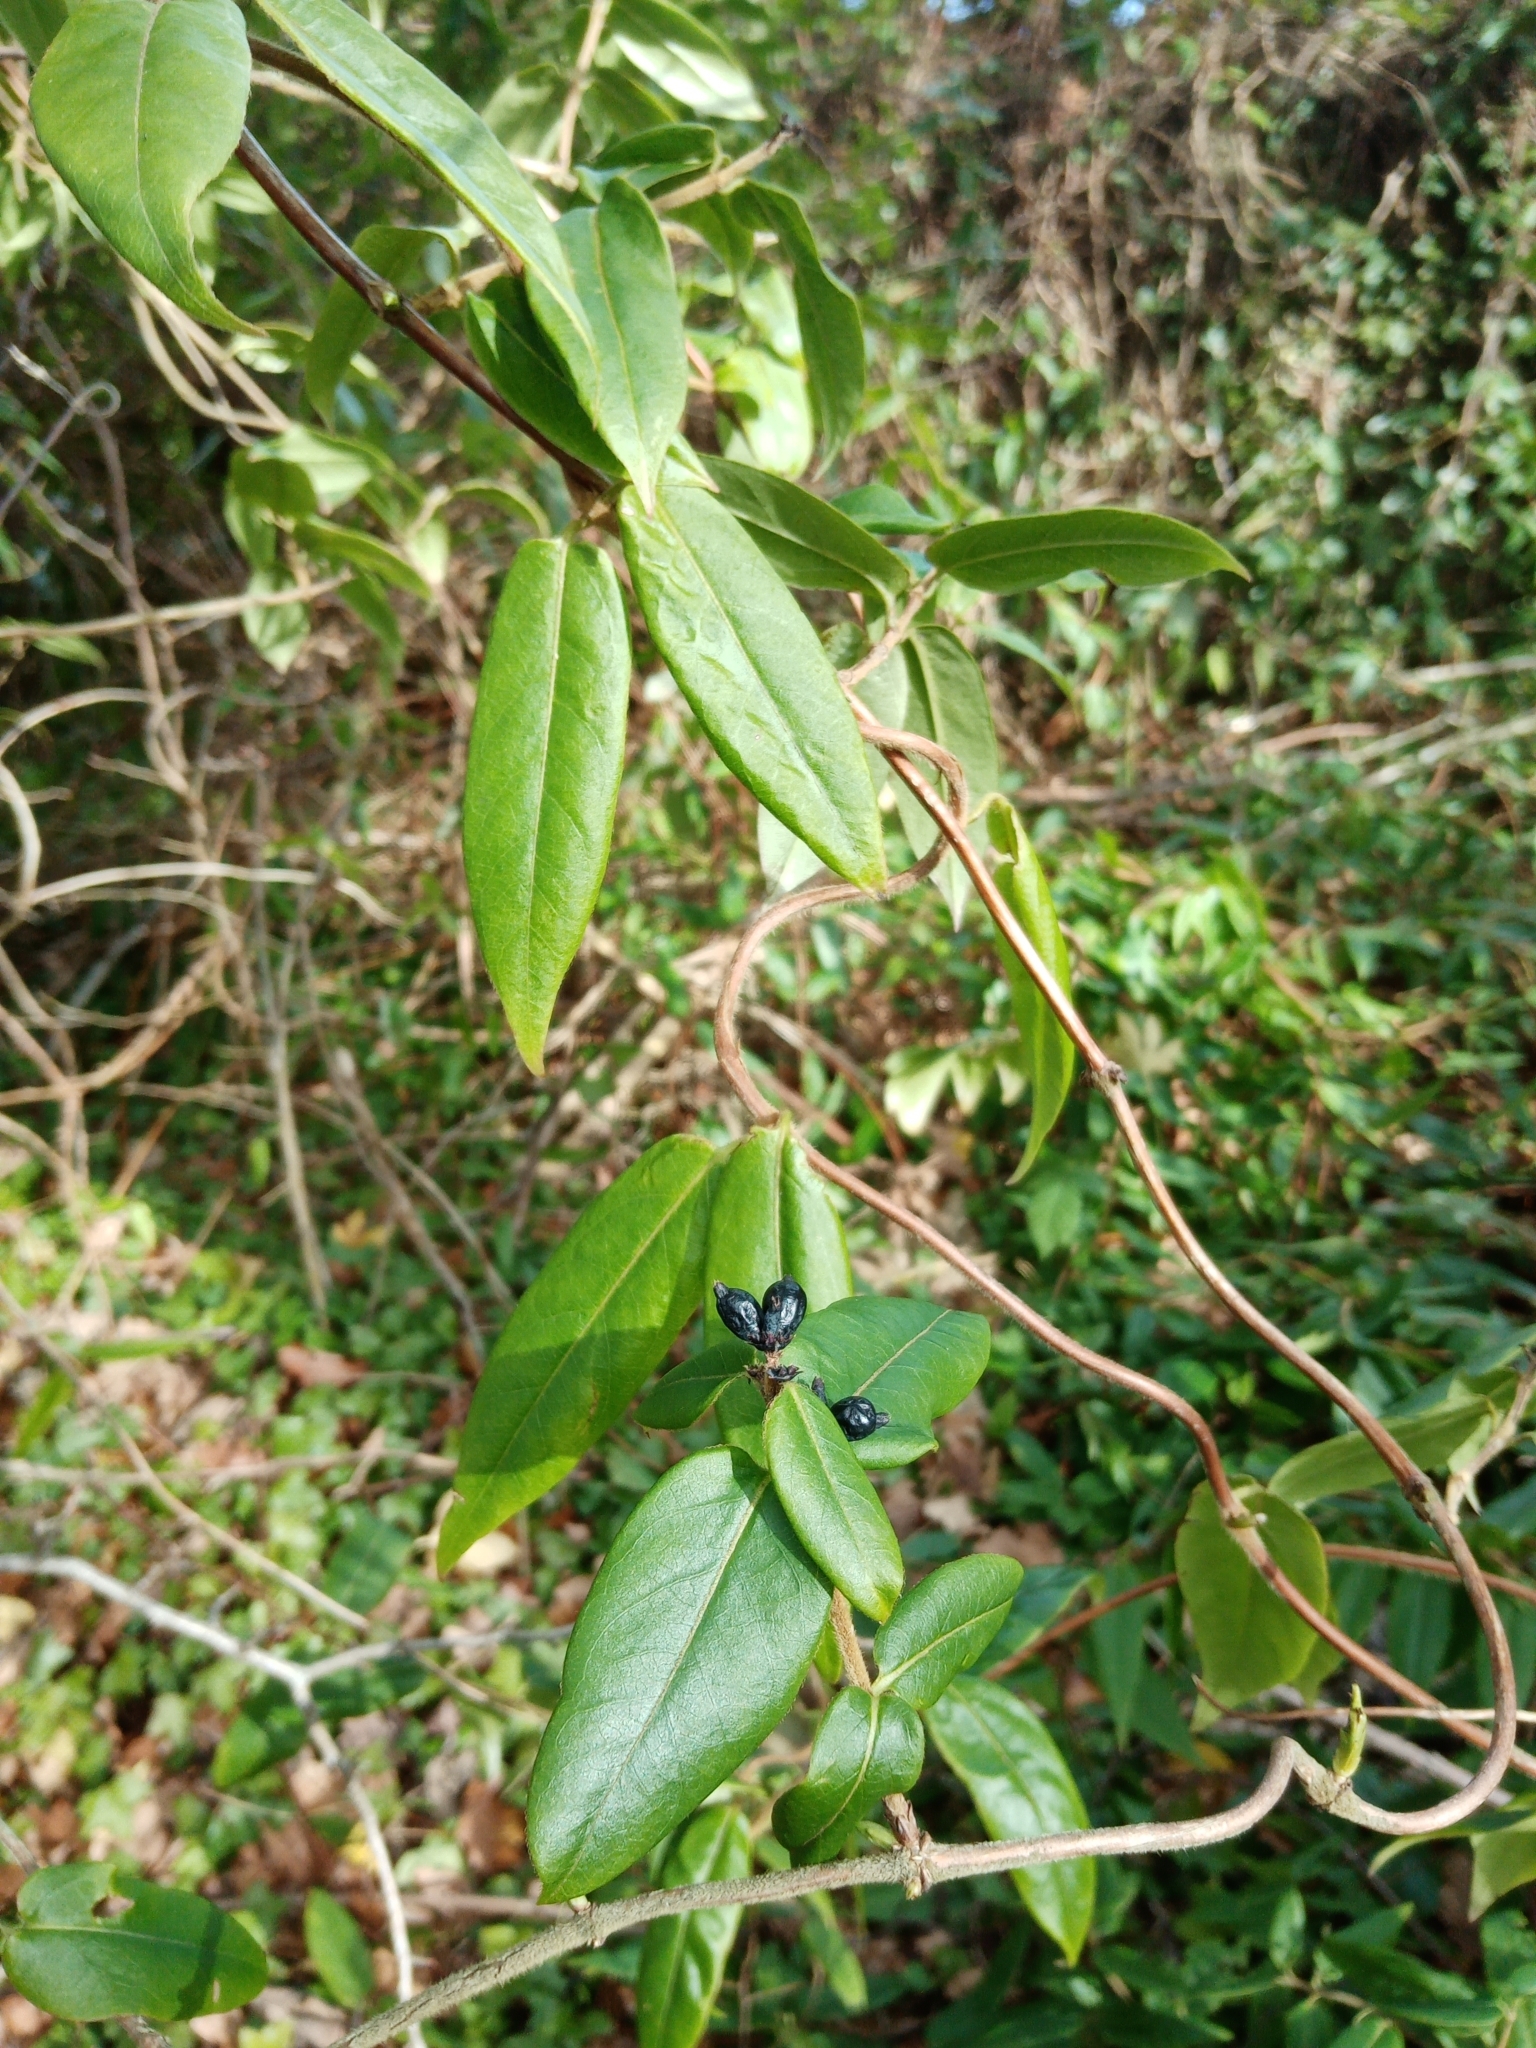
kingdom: Plantae
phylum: Tracheophyta
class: Magnoliopsida
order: Dipsacales
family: Caprifoliaceae
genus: Lonicera
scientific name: Lonicera acuminata
